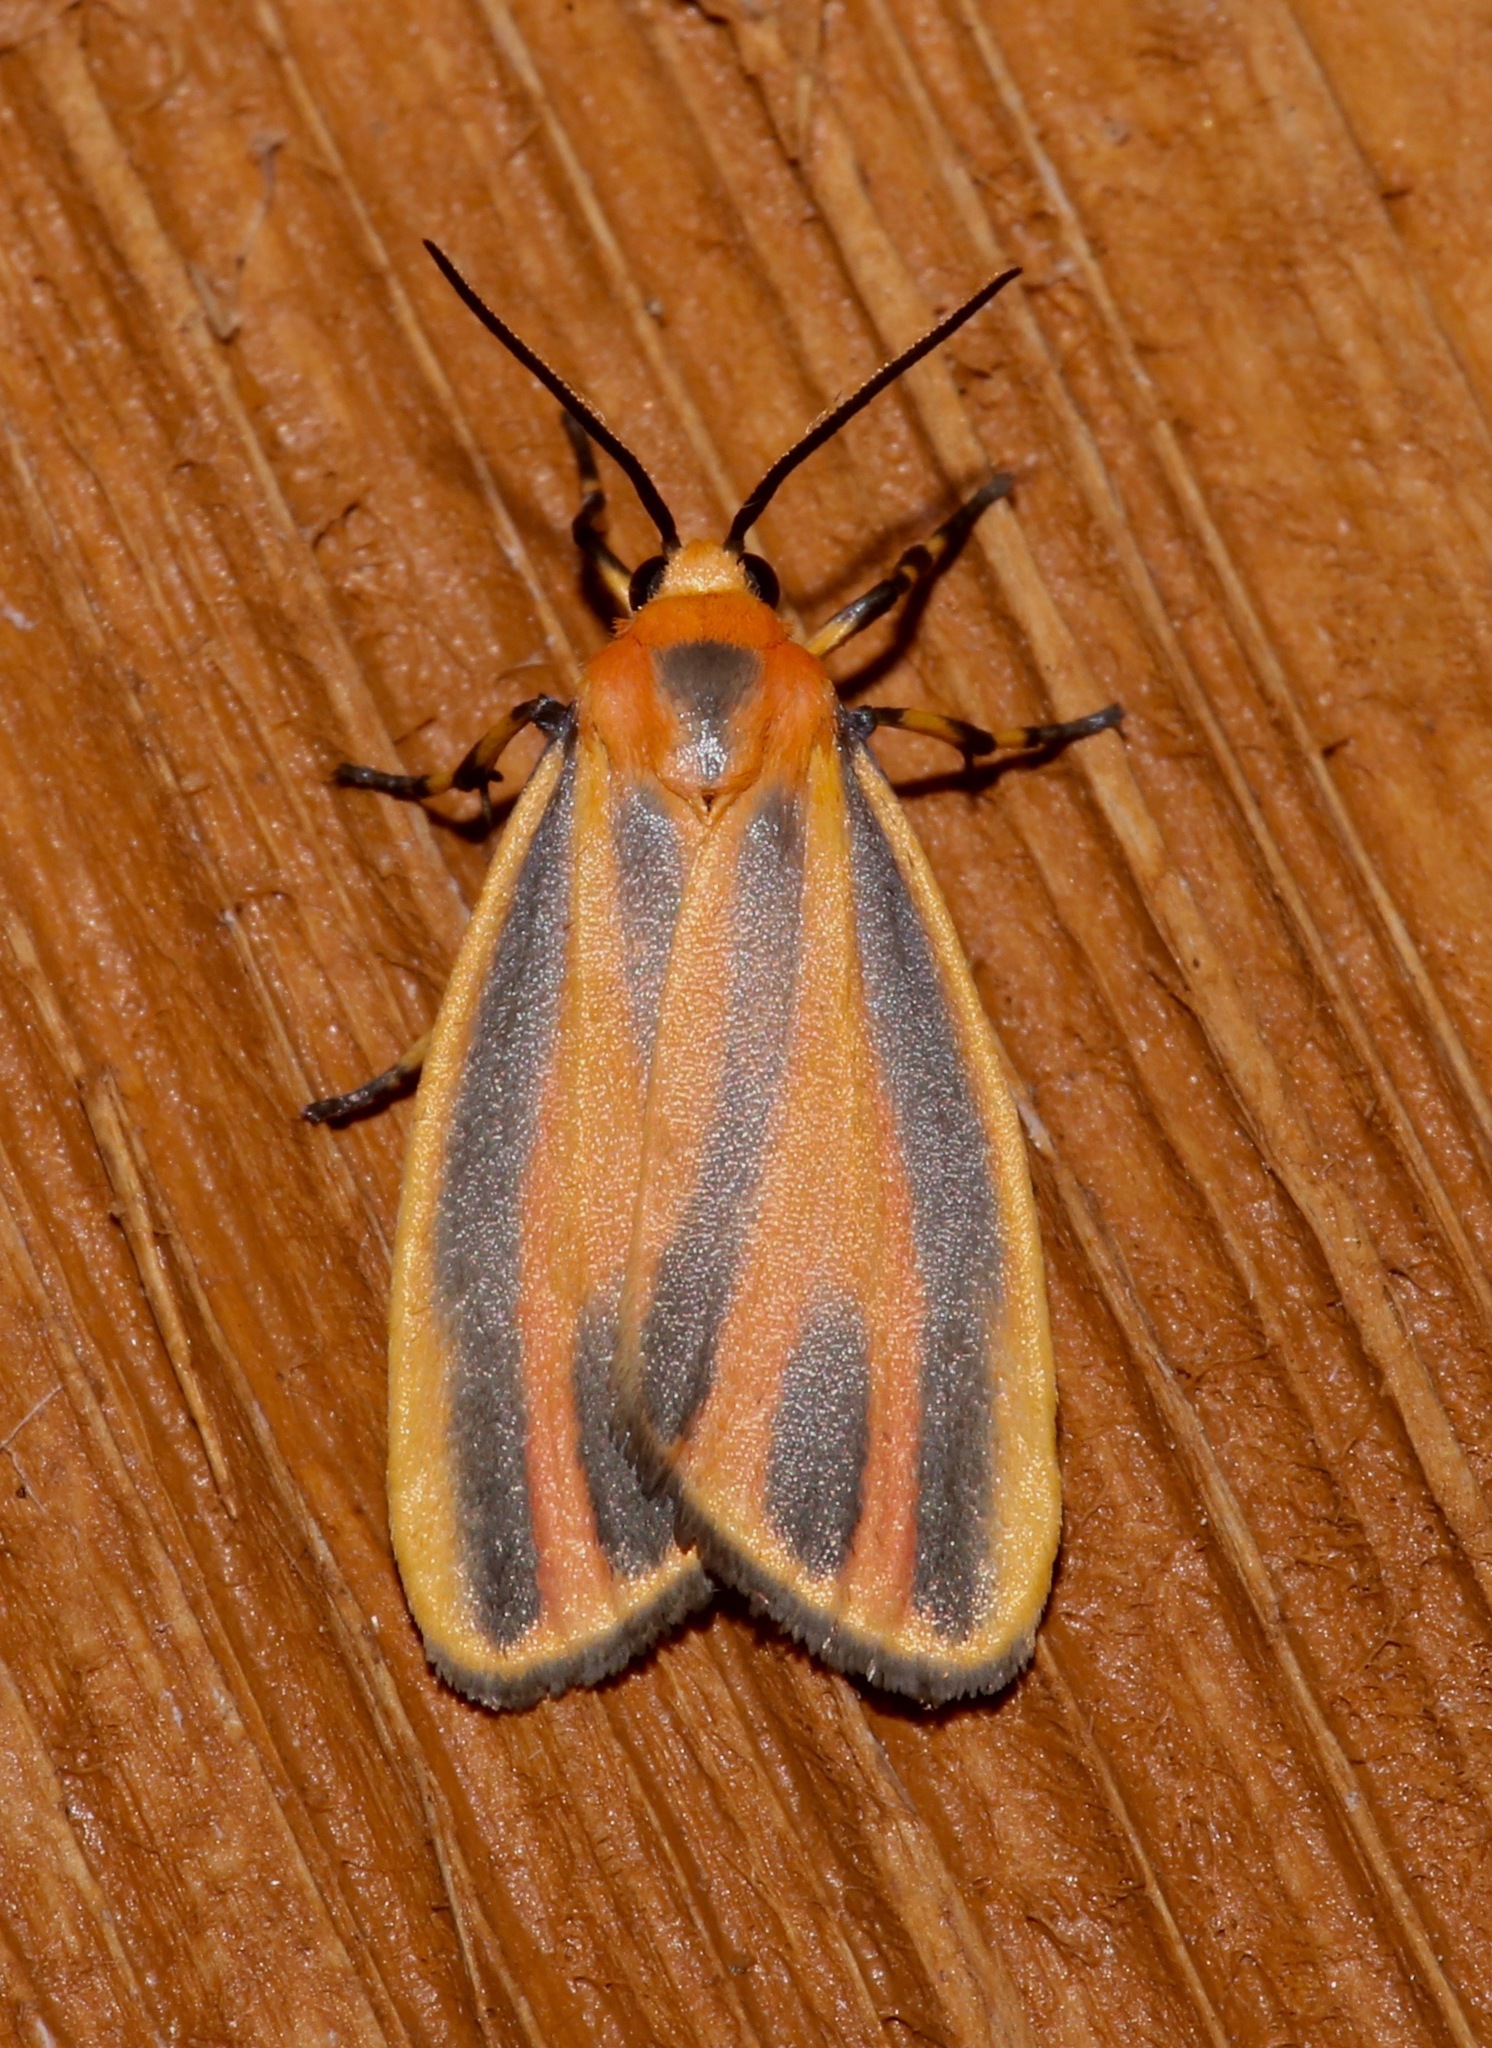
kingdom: Animalia
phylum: Arthropoda
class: Insecta
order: Lepidoptera
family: Erebidae
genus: Hypoprepia
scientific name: Hypoprepia fucosa
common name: Painted lichen moth
